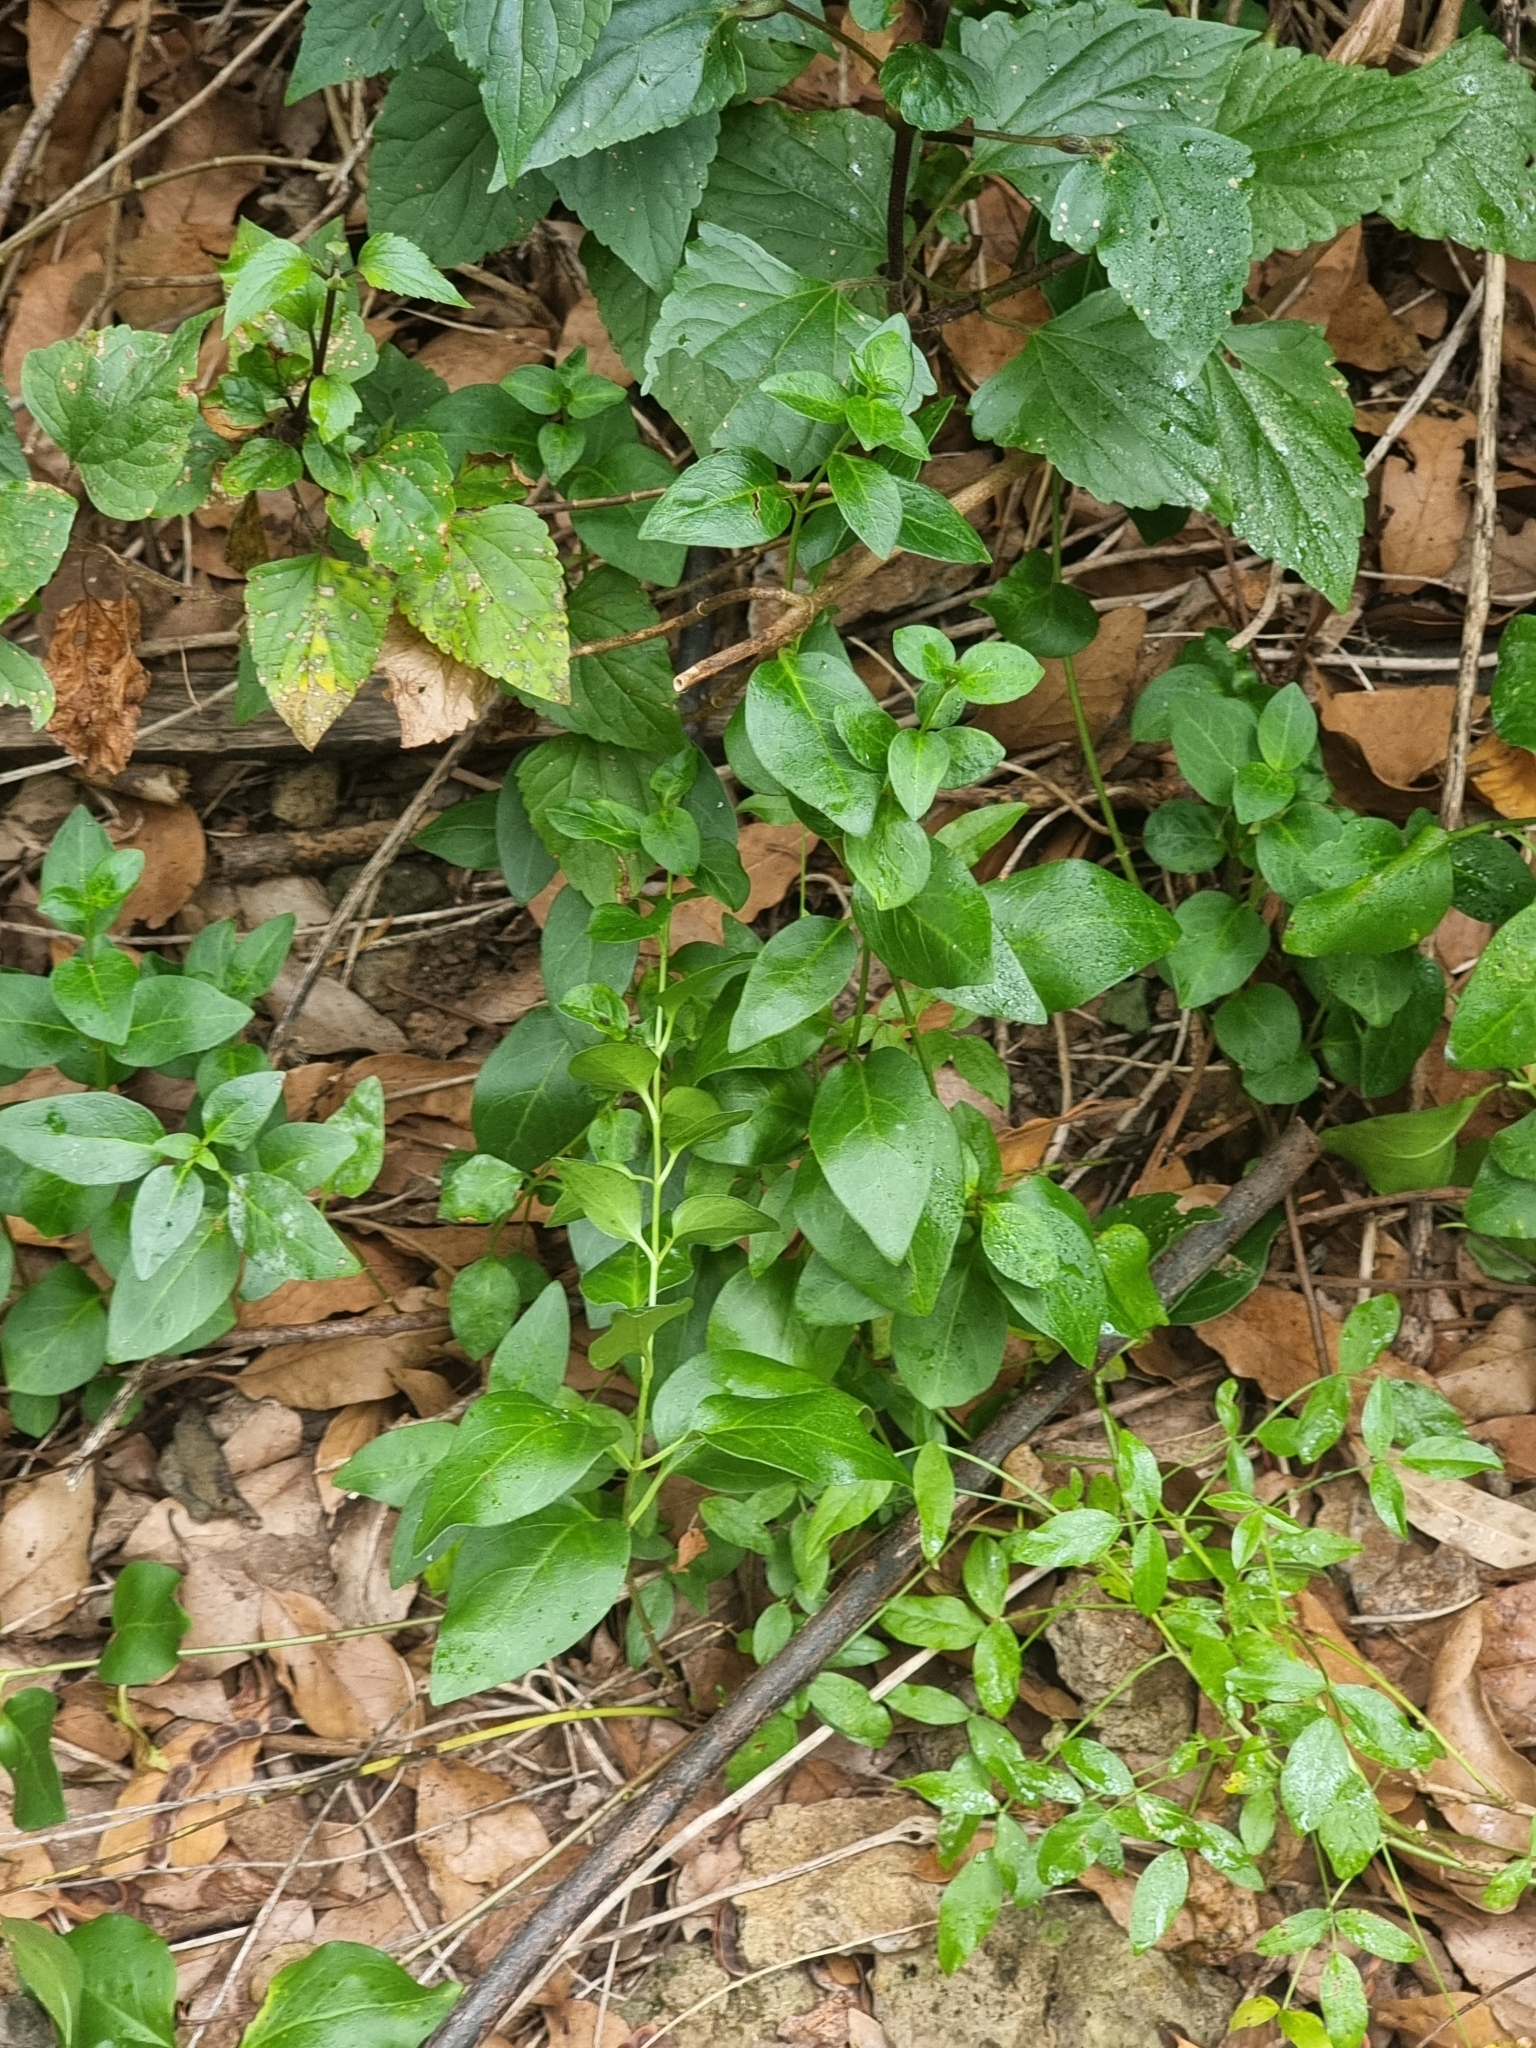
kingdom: Plantae
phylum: Tracheophyta
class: Magnoliopsida
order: Gentianales
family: Apocynaceae
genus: Vinca
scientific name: Vinca major
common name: Greater periwinkle
